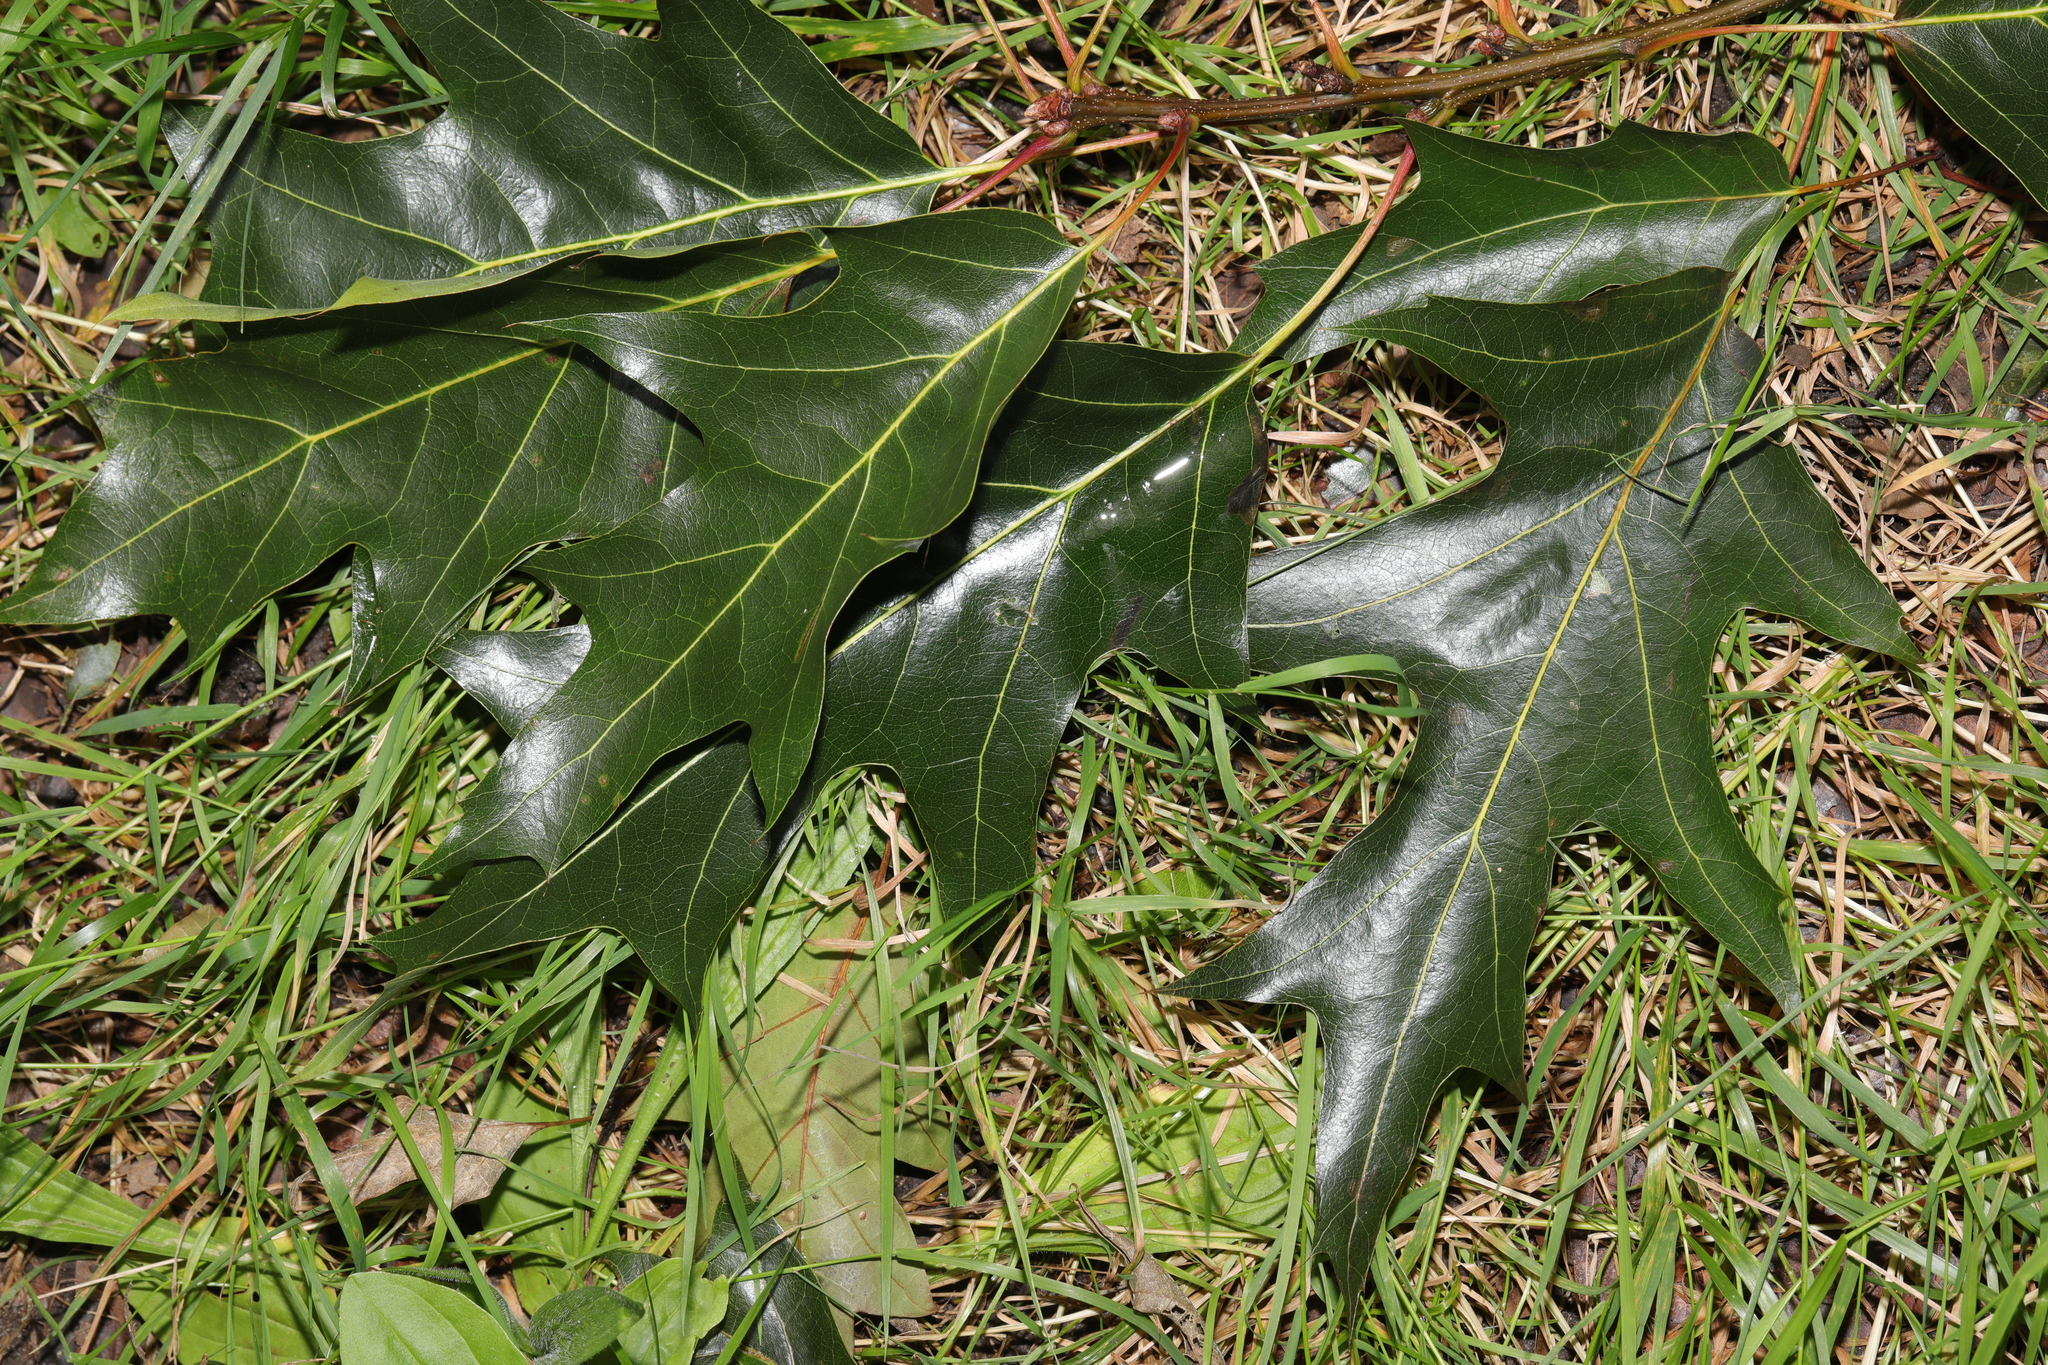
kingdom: Plantae
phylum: Tracheophyta
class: Magnoliopsida
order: Fagales
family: Fagaceae
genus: Quercus
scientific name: Quercus rubra
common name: Red oak
